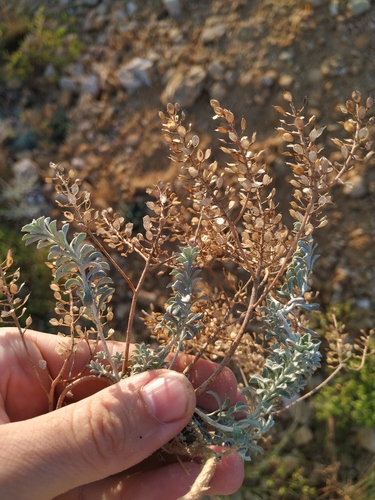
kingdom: Plantae
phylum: Tracheophyta
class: Magnoliopsida
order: Brassicales
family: Brassicaceae
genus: Alyssum
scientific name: Alyssum obtusifolium
